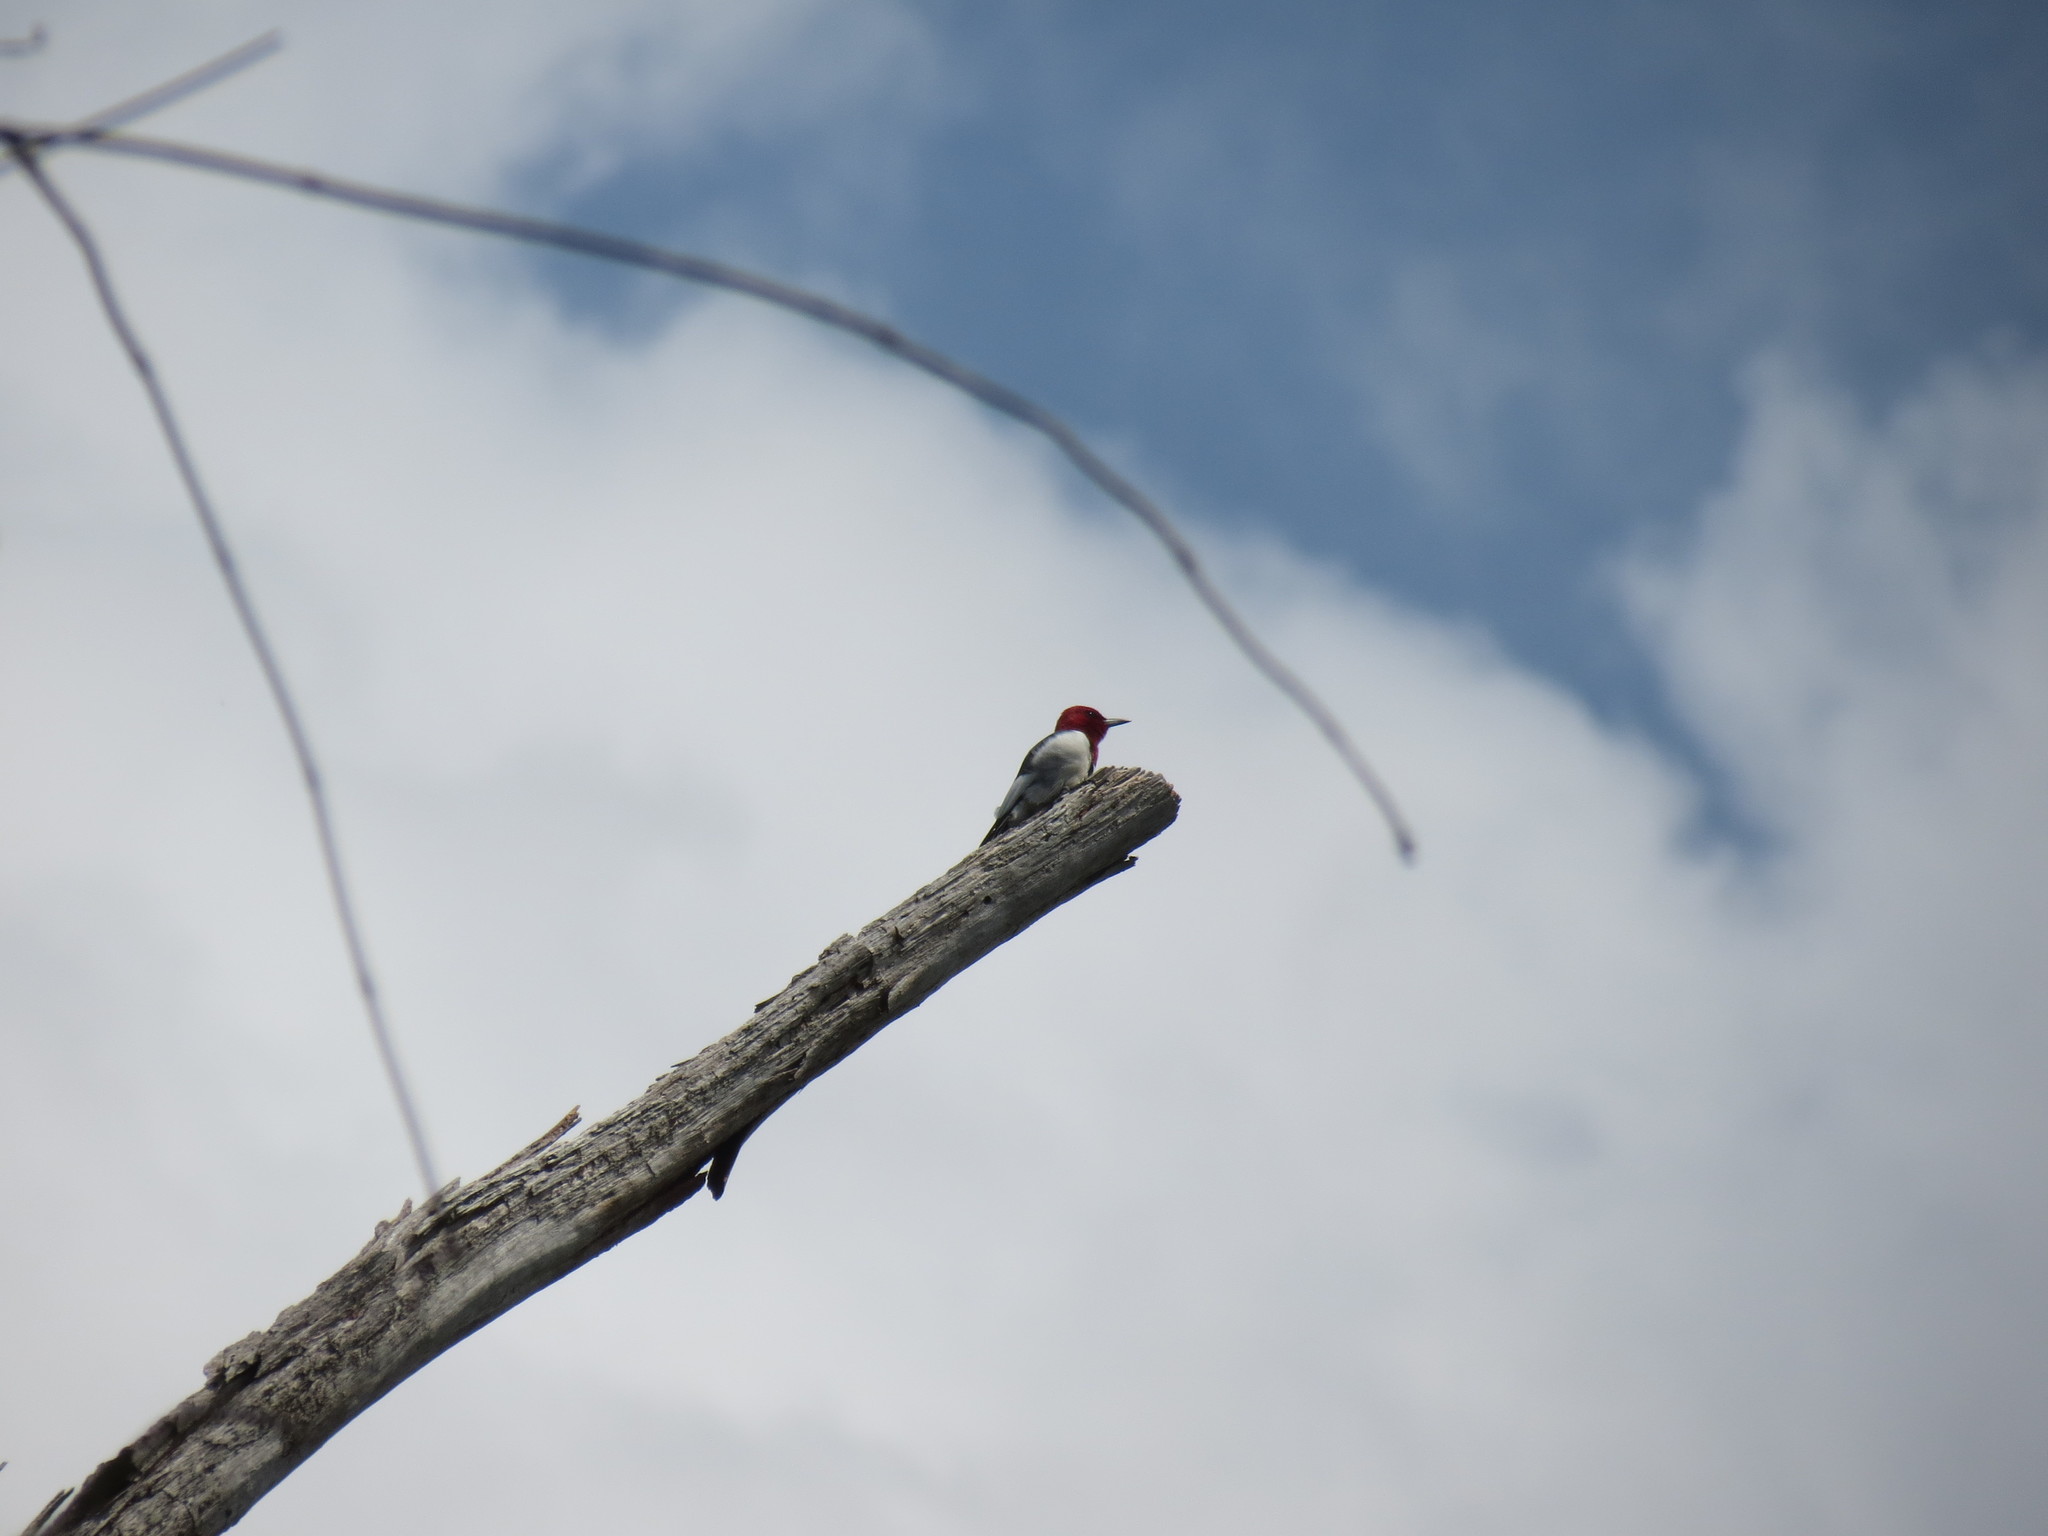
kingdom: Animalia
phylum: Chordata
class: Aves
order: Piciformes
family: Picidae
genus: Melanerpes
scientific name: Melanerpes erythrocephalus
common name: Red-headed woodpecker
